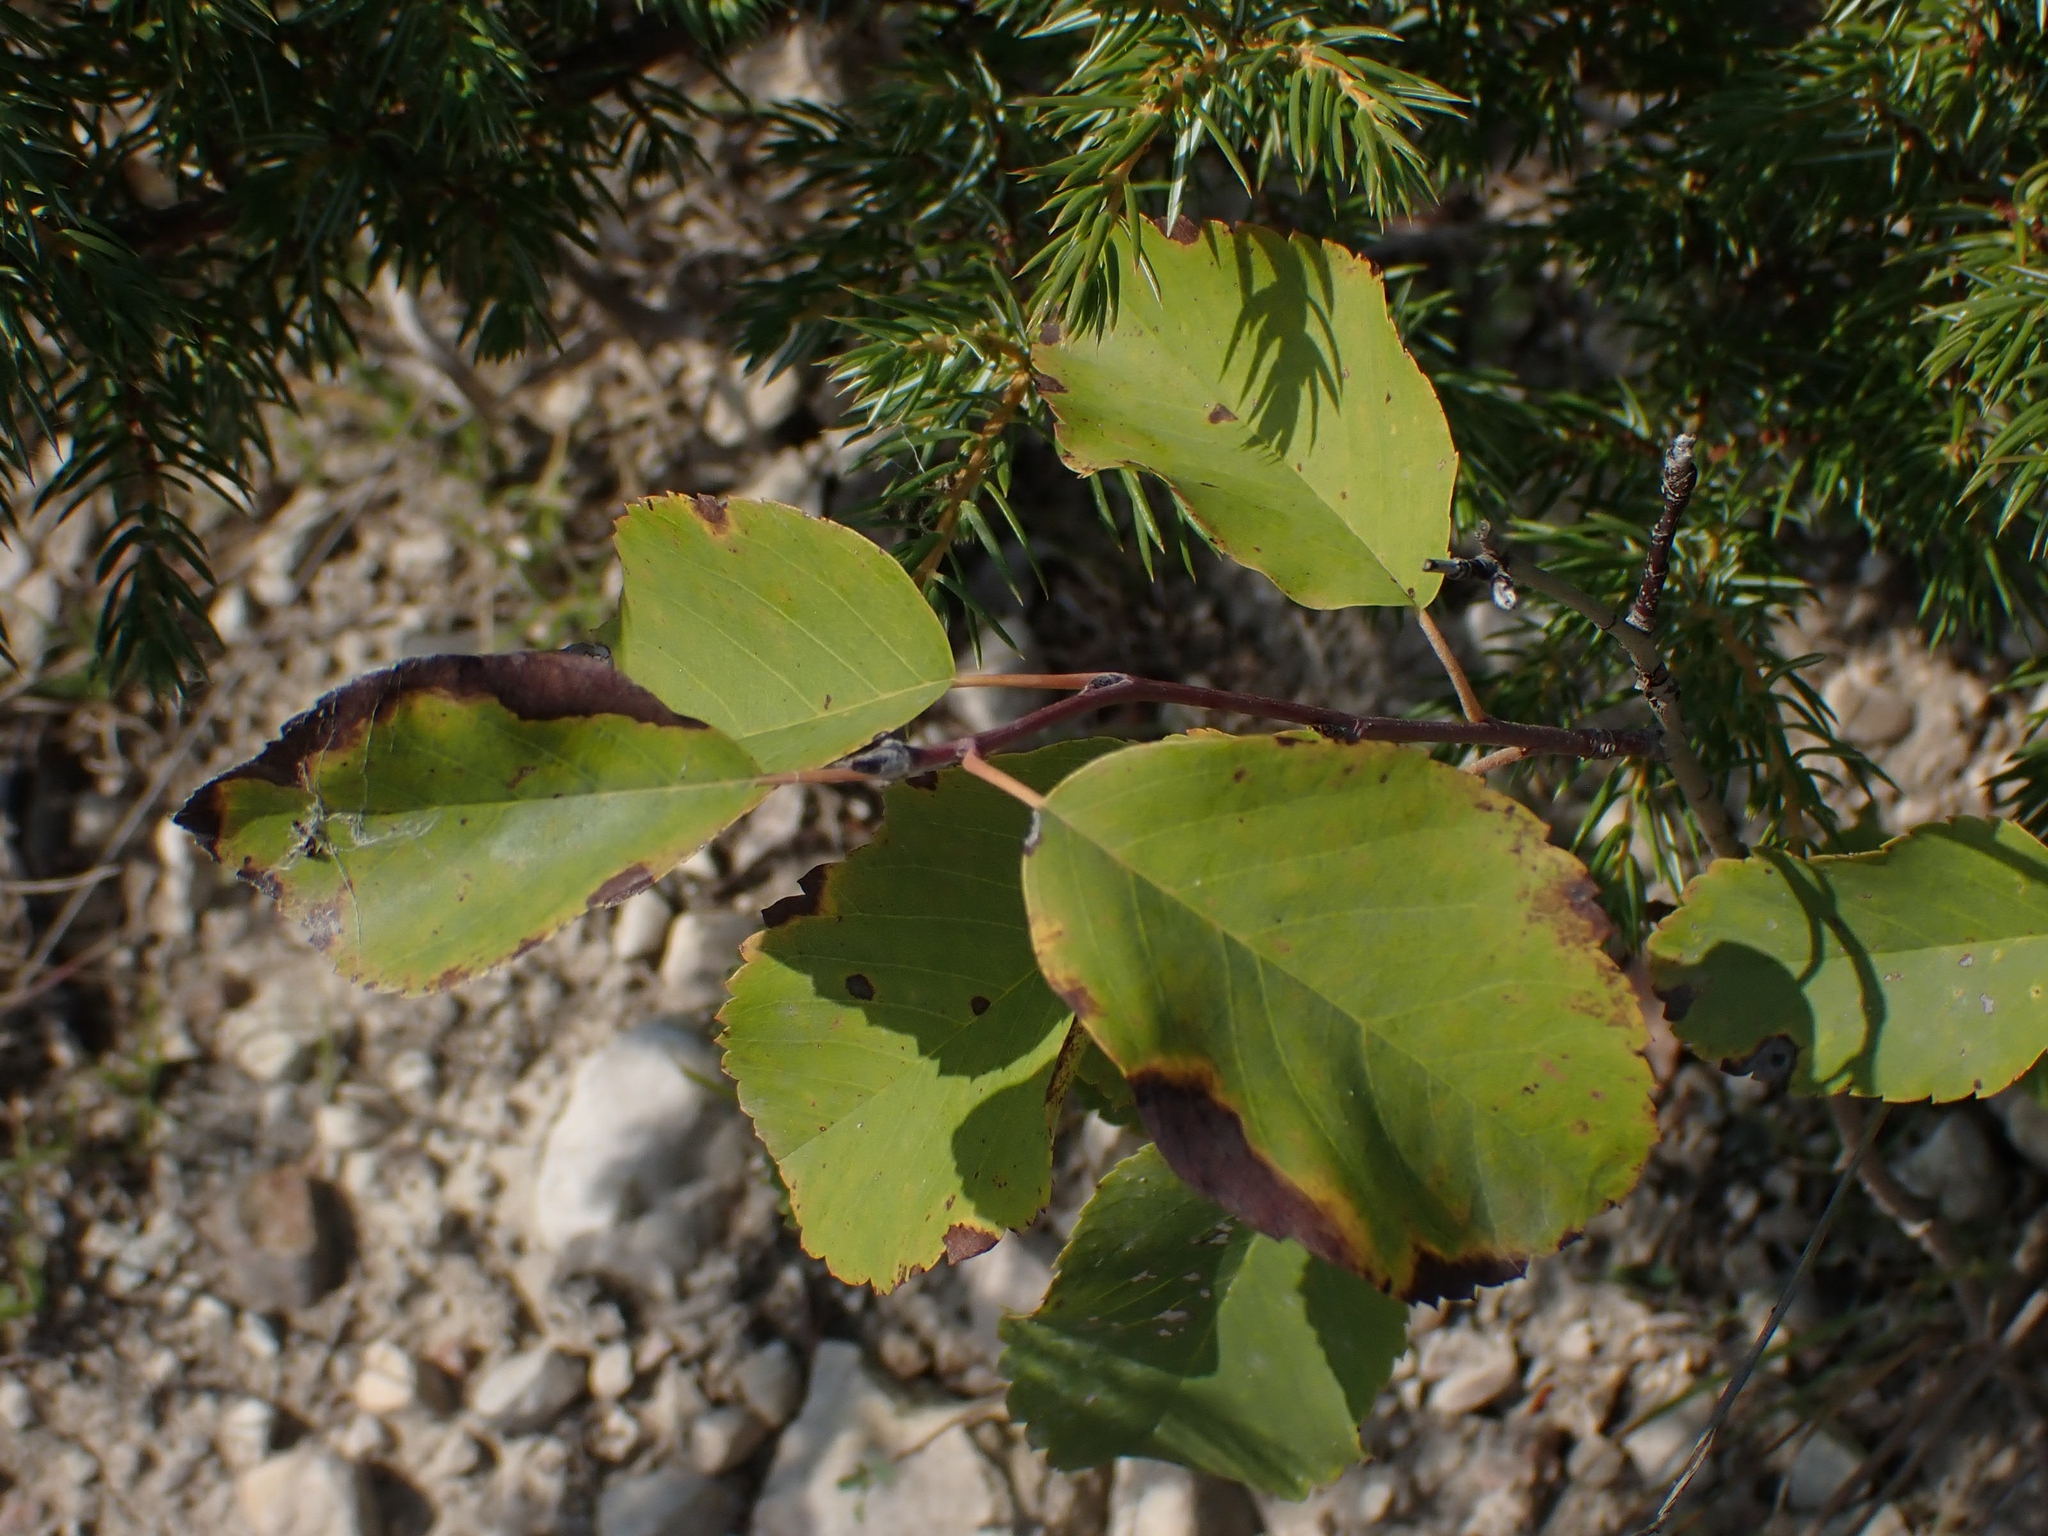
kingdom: Plantae
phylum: Tracheophyta
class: Magnoliopsida
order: Rosales
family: Rosaceae
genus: Amelanchier
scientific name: Amelanchier alnifolia
